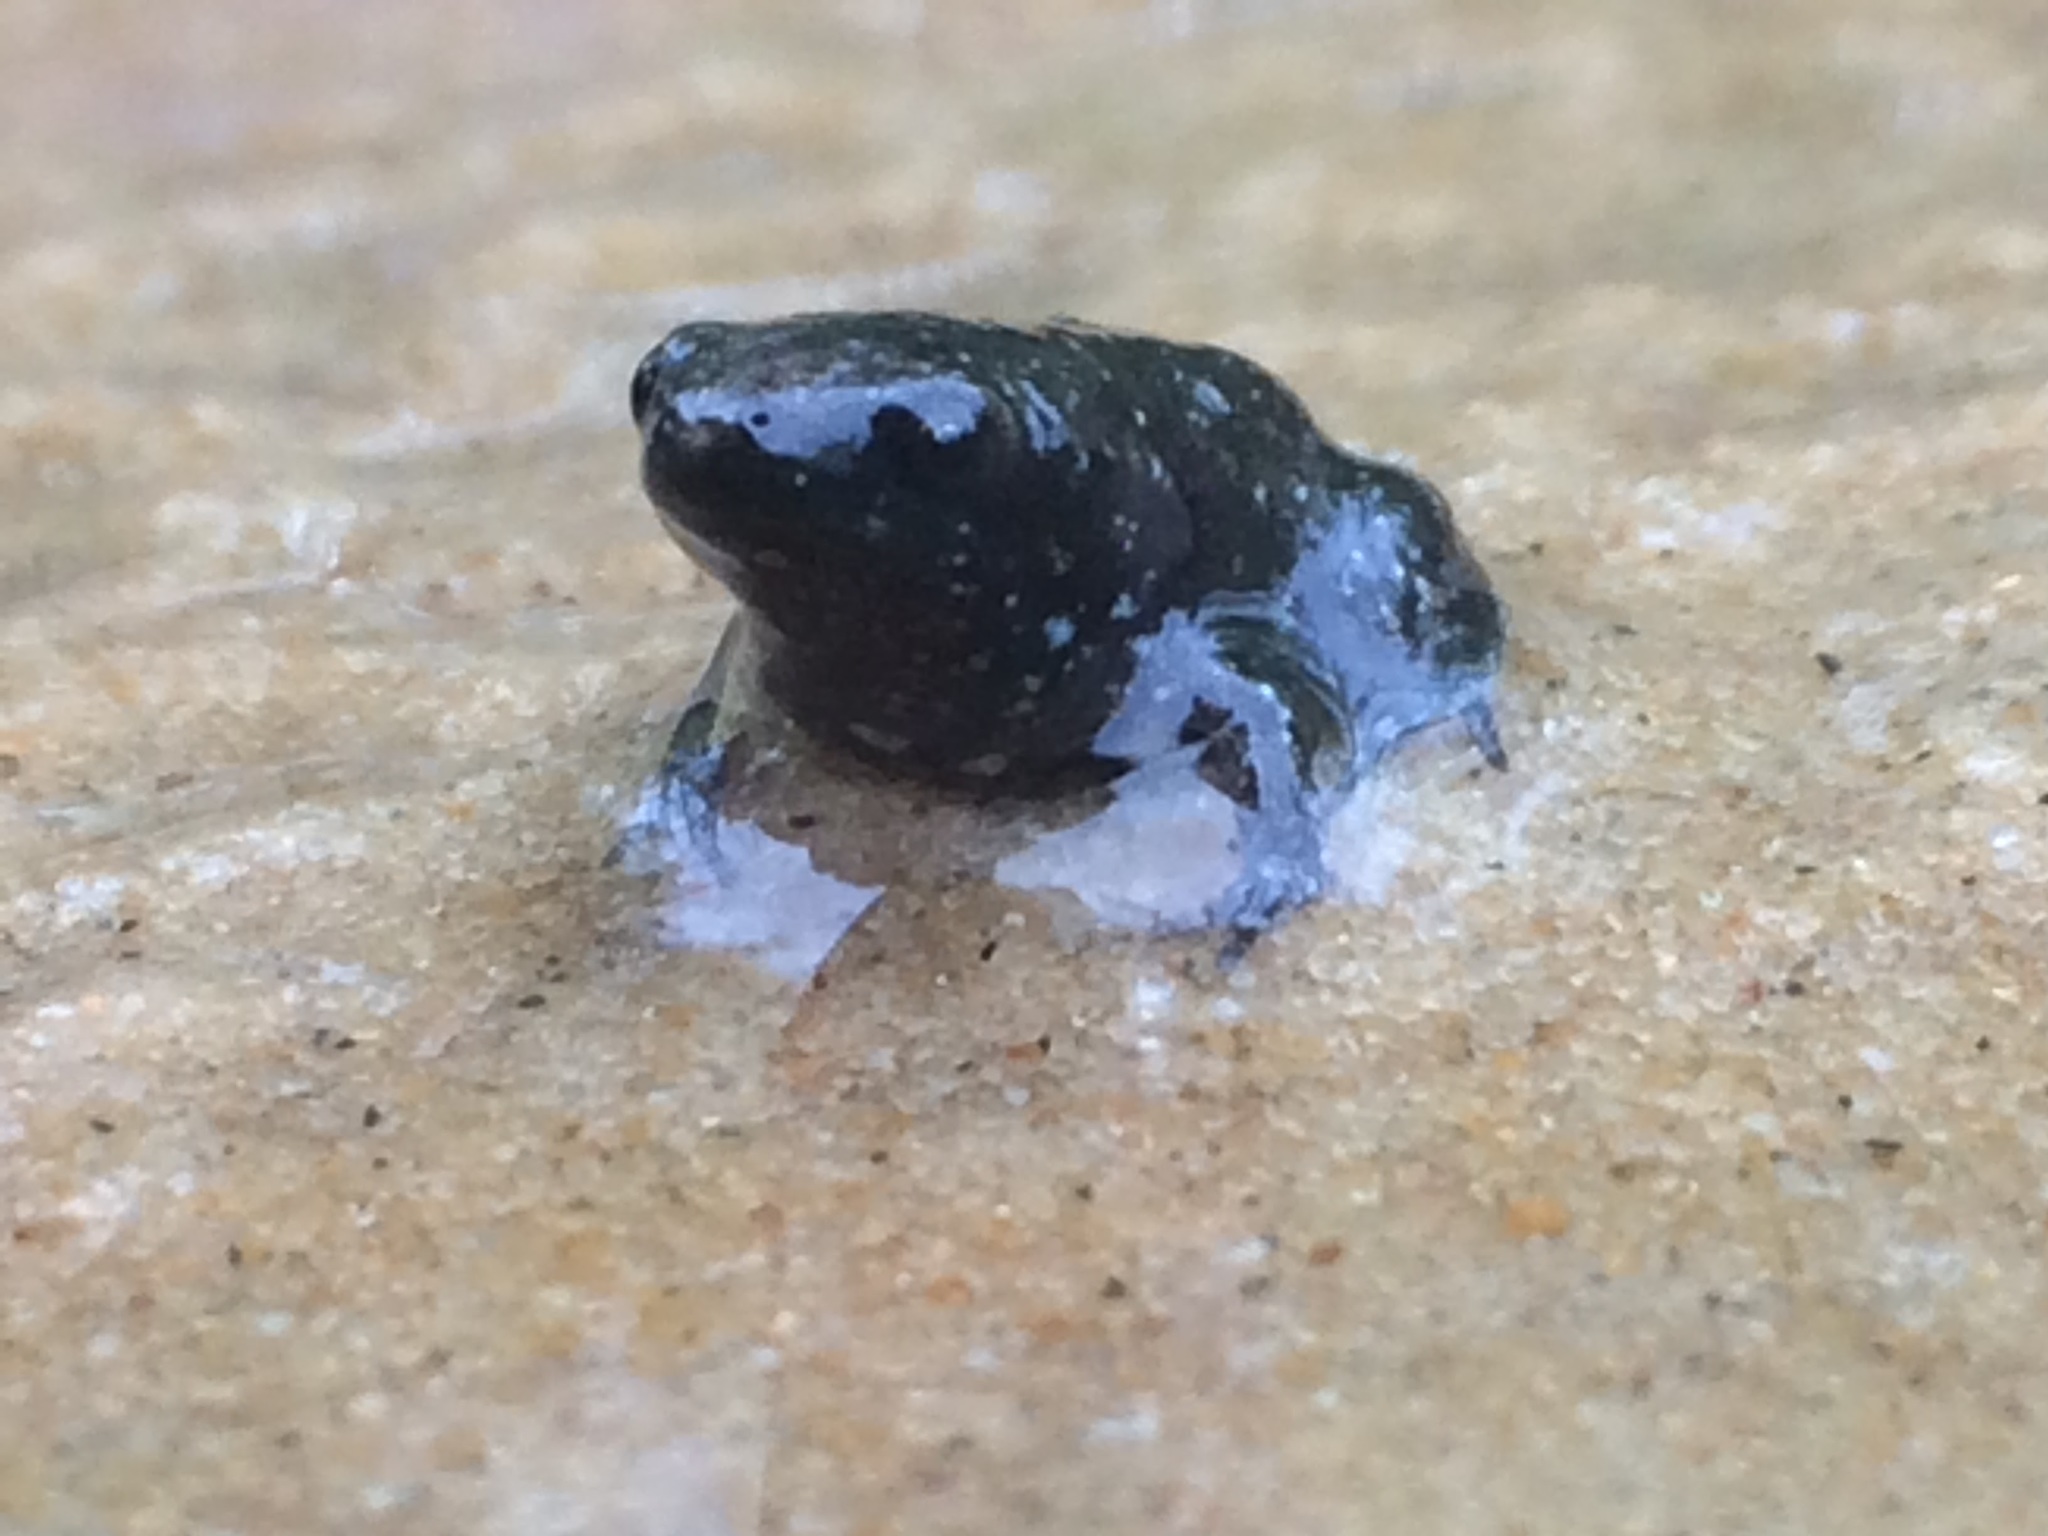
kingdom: Animalia
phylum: Chordata
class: Amphibia
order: Anura
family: Microhylidae
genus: Gastrophryne
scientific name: Gastrophryne carolinensis
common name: Eastern narrowmouth toad
